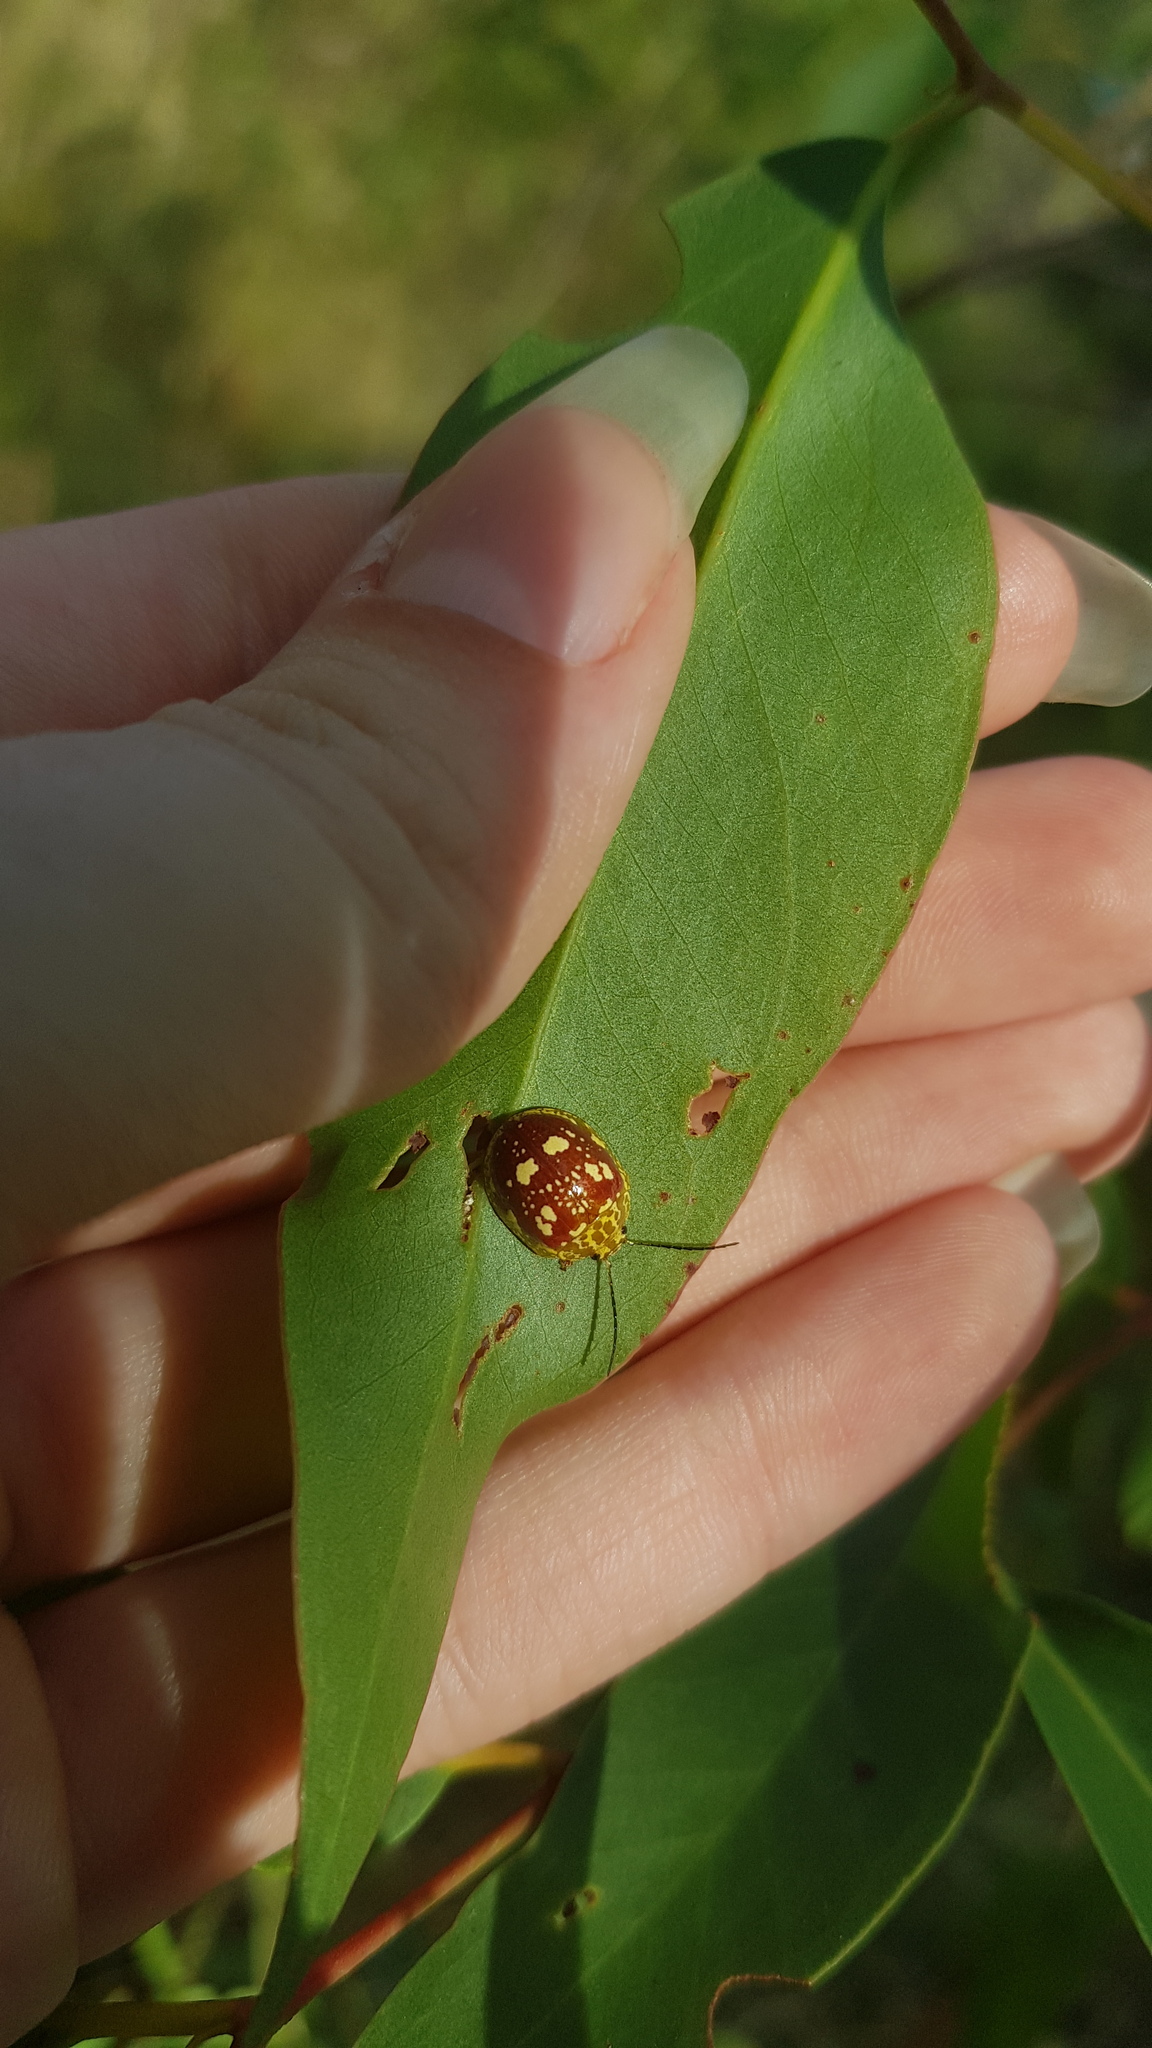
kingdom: Animalia
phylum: Arthropoda
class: Insecta
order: Coleoptera
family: Chrysomelidae
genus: Paropsis
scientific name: Paropsis maculata
